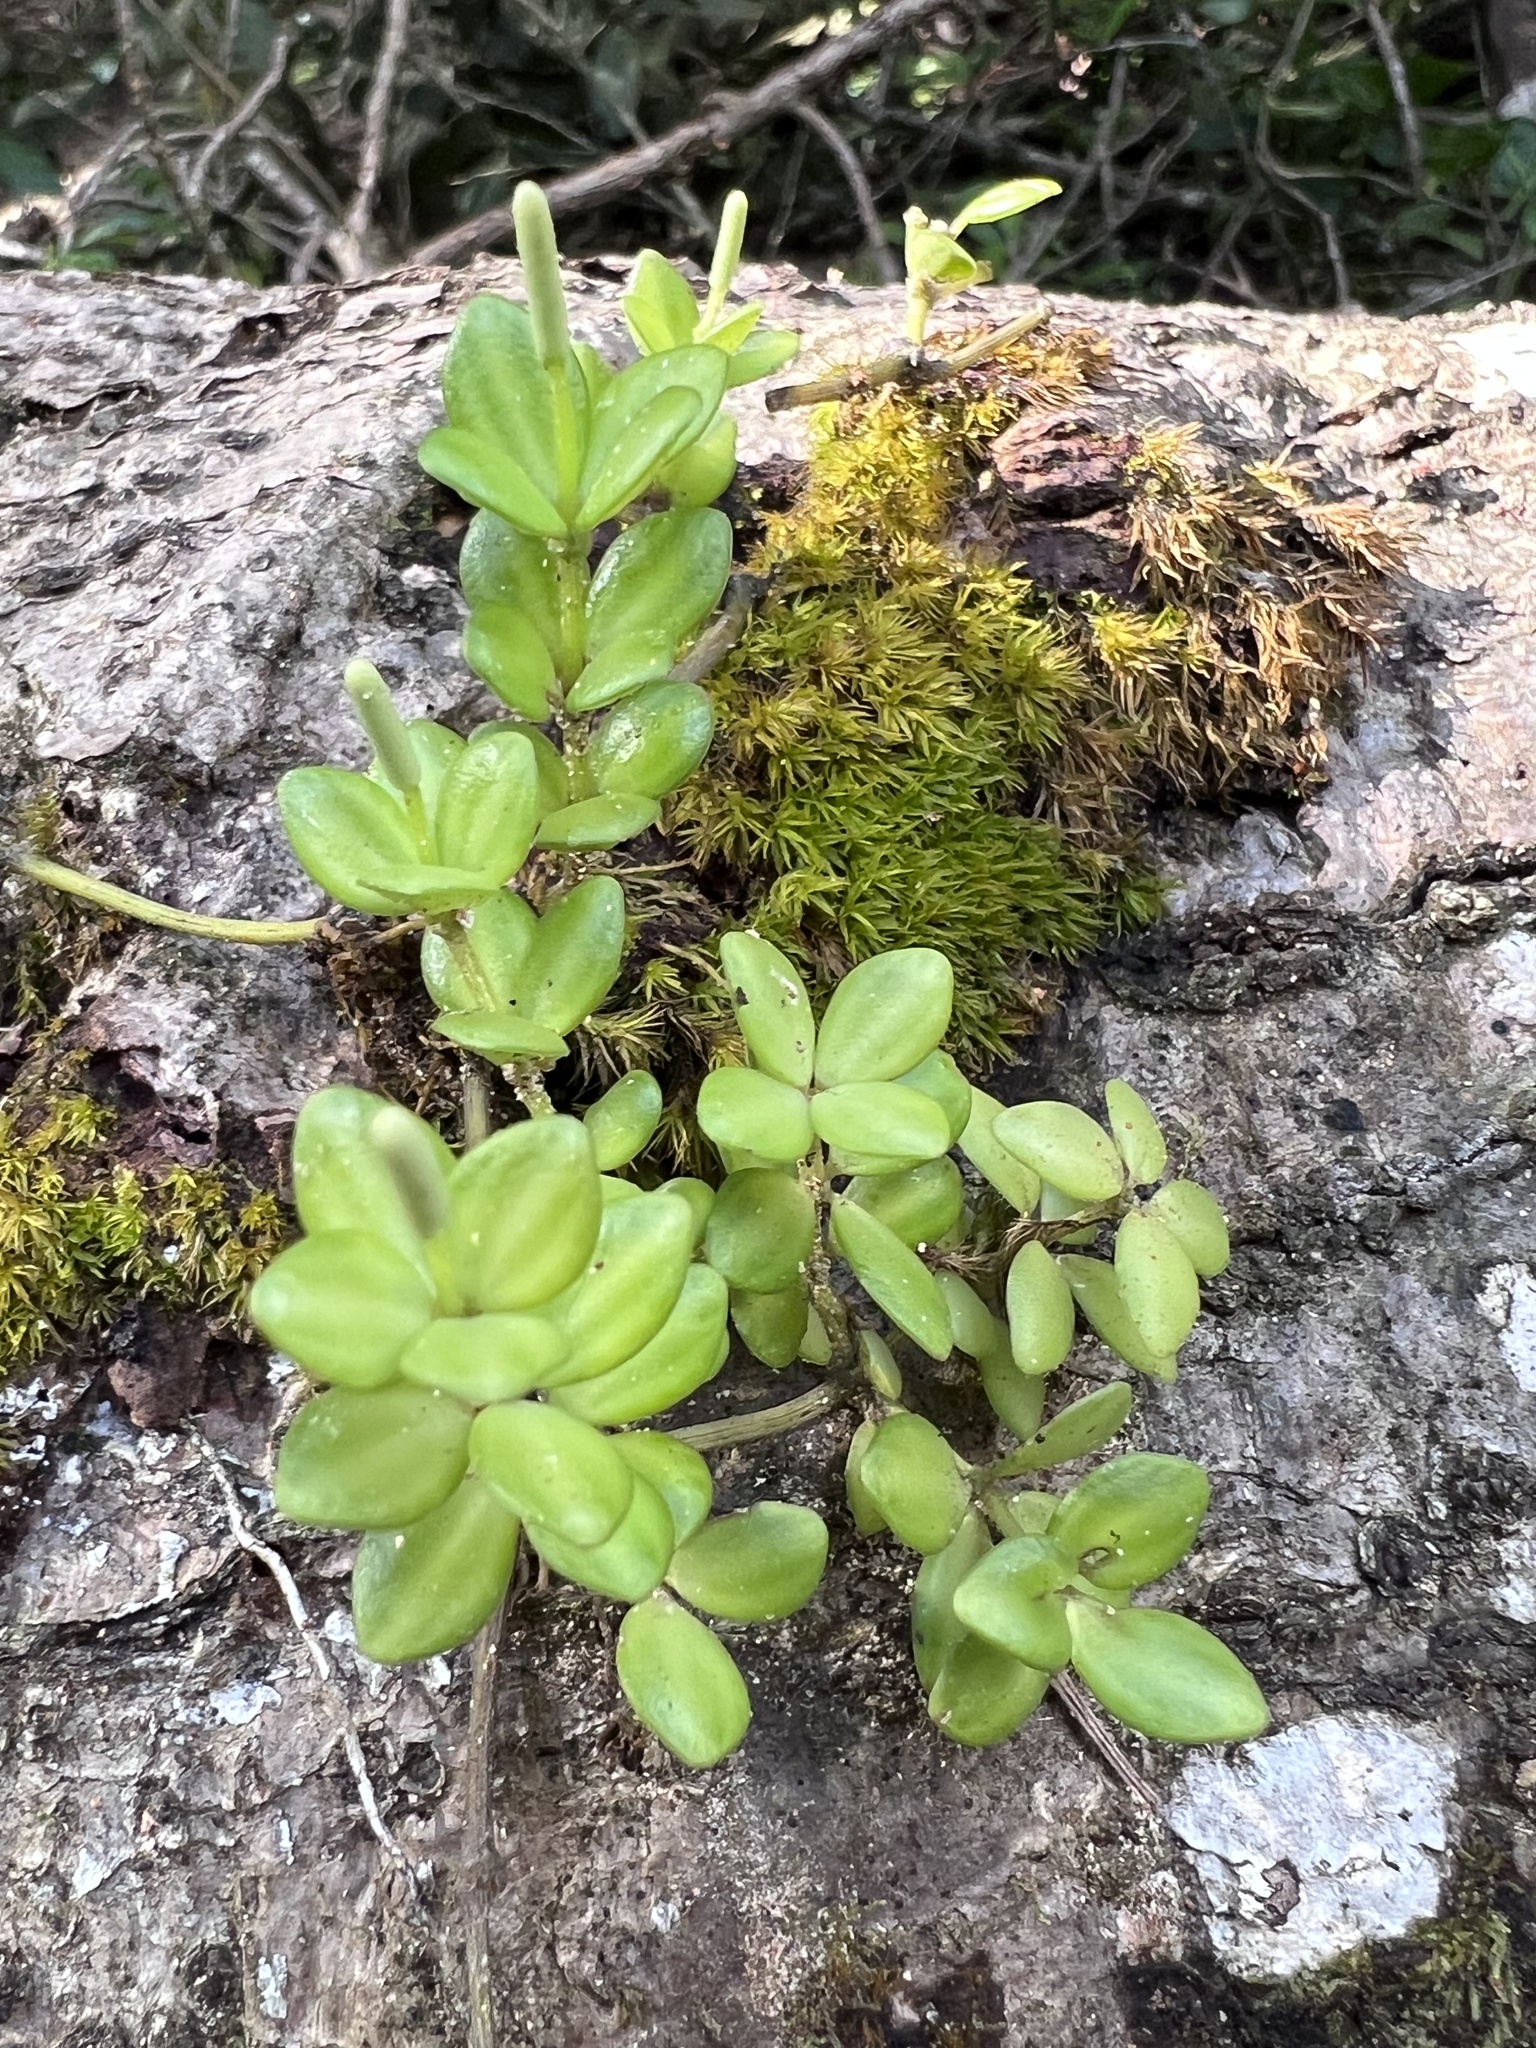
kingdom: Plantae
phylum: Tracheophyta
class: Magnoliopsida
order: Piperales
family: Piperaceae
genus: Peperomia
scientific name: Peperomia tetraphylla
